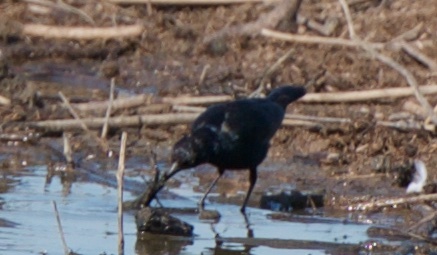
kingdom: Animalia
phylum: Chordata
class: Aves
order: Passeriformes
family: Icteridae
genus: Euphagus
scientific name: Euphagus cyanocephalus
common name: Brewer's blackbird
